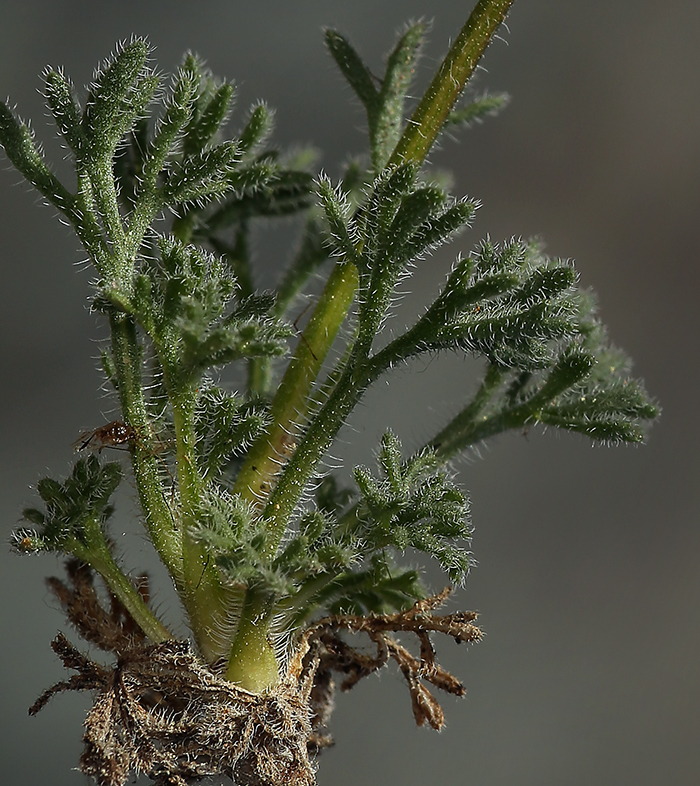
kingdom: Plantae
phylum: Tracheophyta
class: Magnoliopsida
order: Asterales
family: Asteraceae
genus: Erigeron
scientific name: Erigeron compositus
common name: Dwarf mountain fleabane
